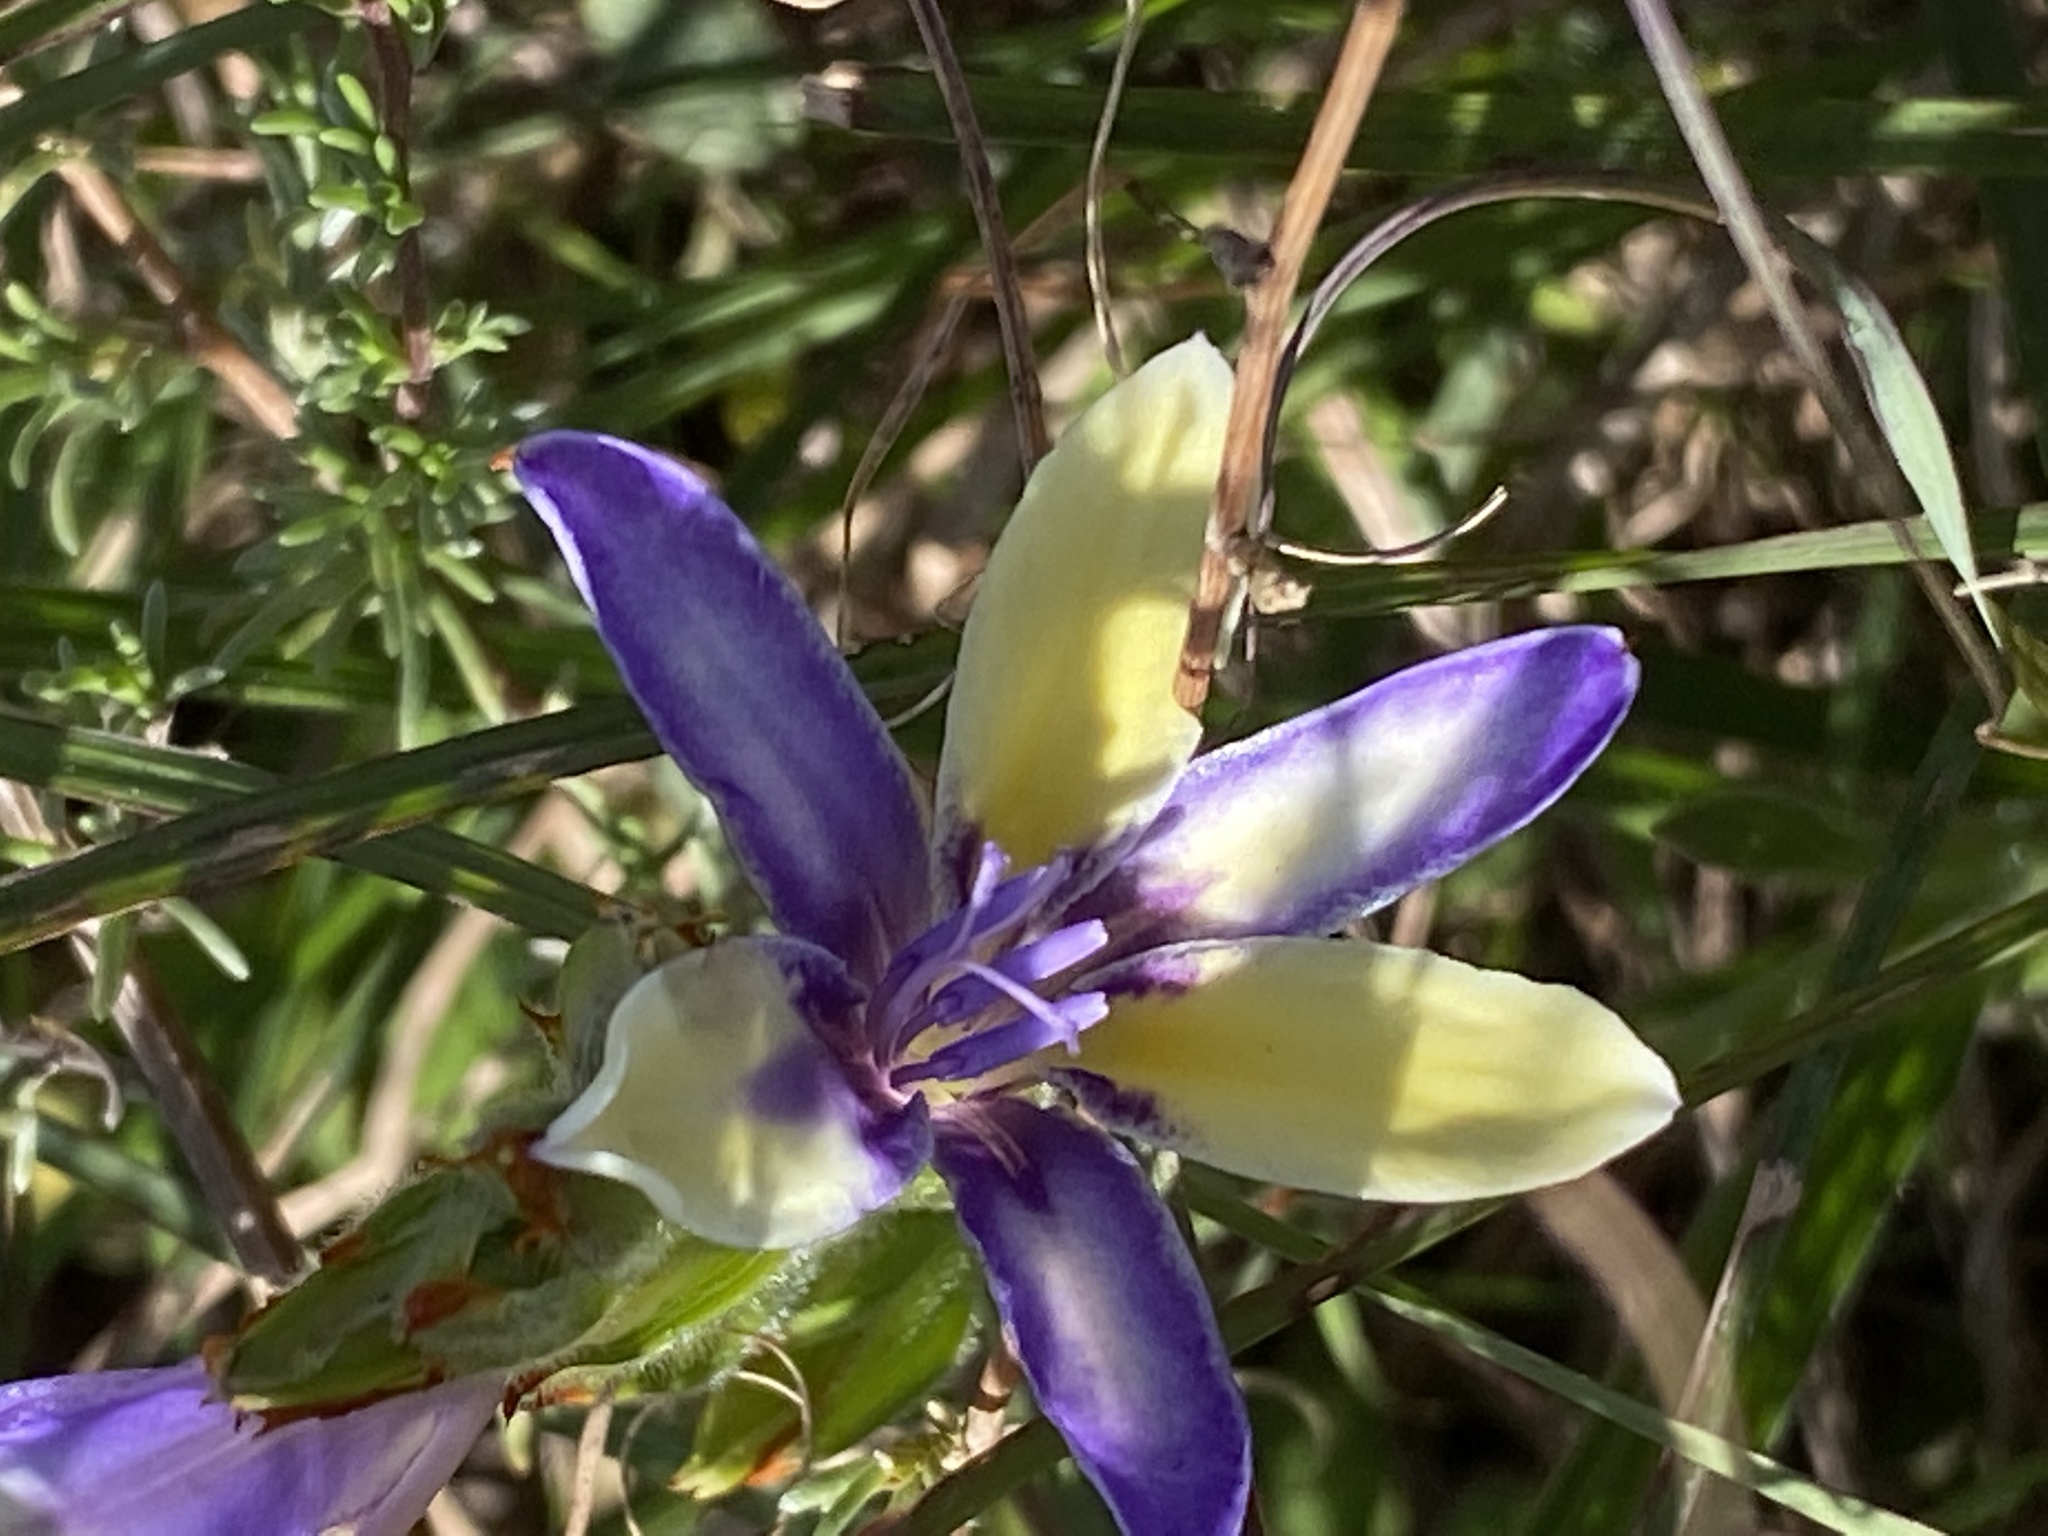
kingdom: Plantae
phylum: Tracheophyta
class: Liliopsida
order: Asparagales
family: Iridaceae
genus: Babiana
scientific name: Babiana patula
